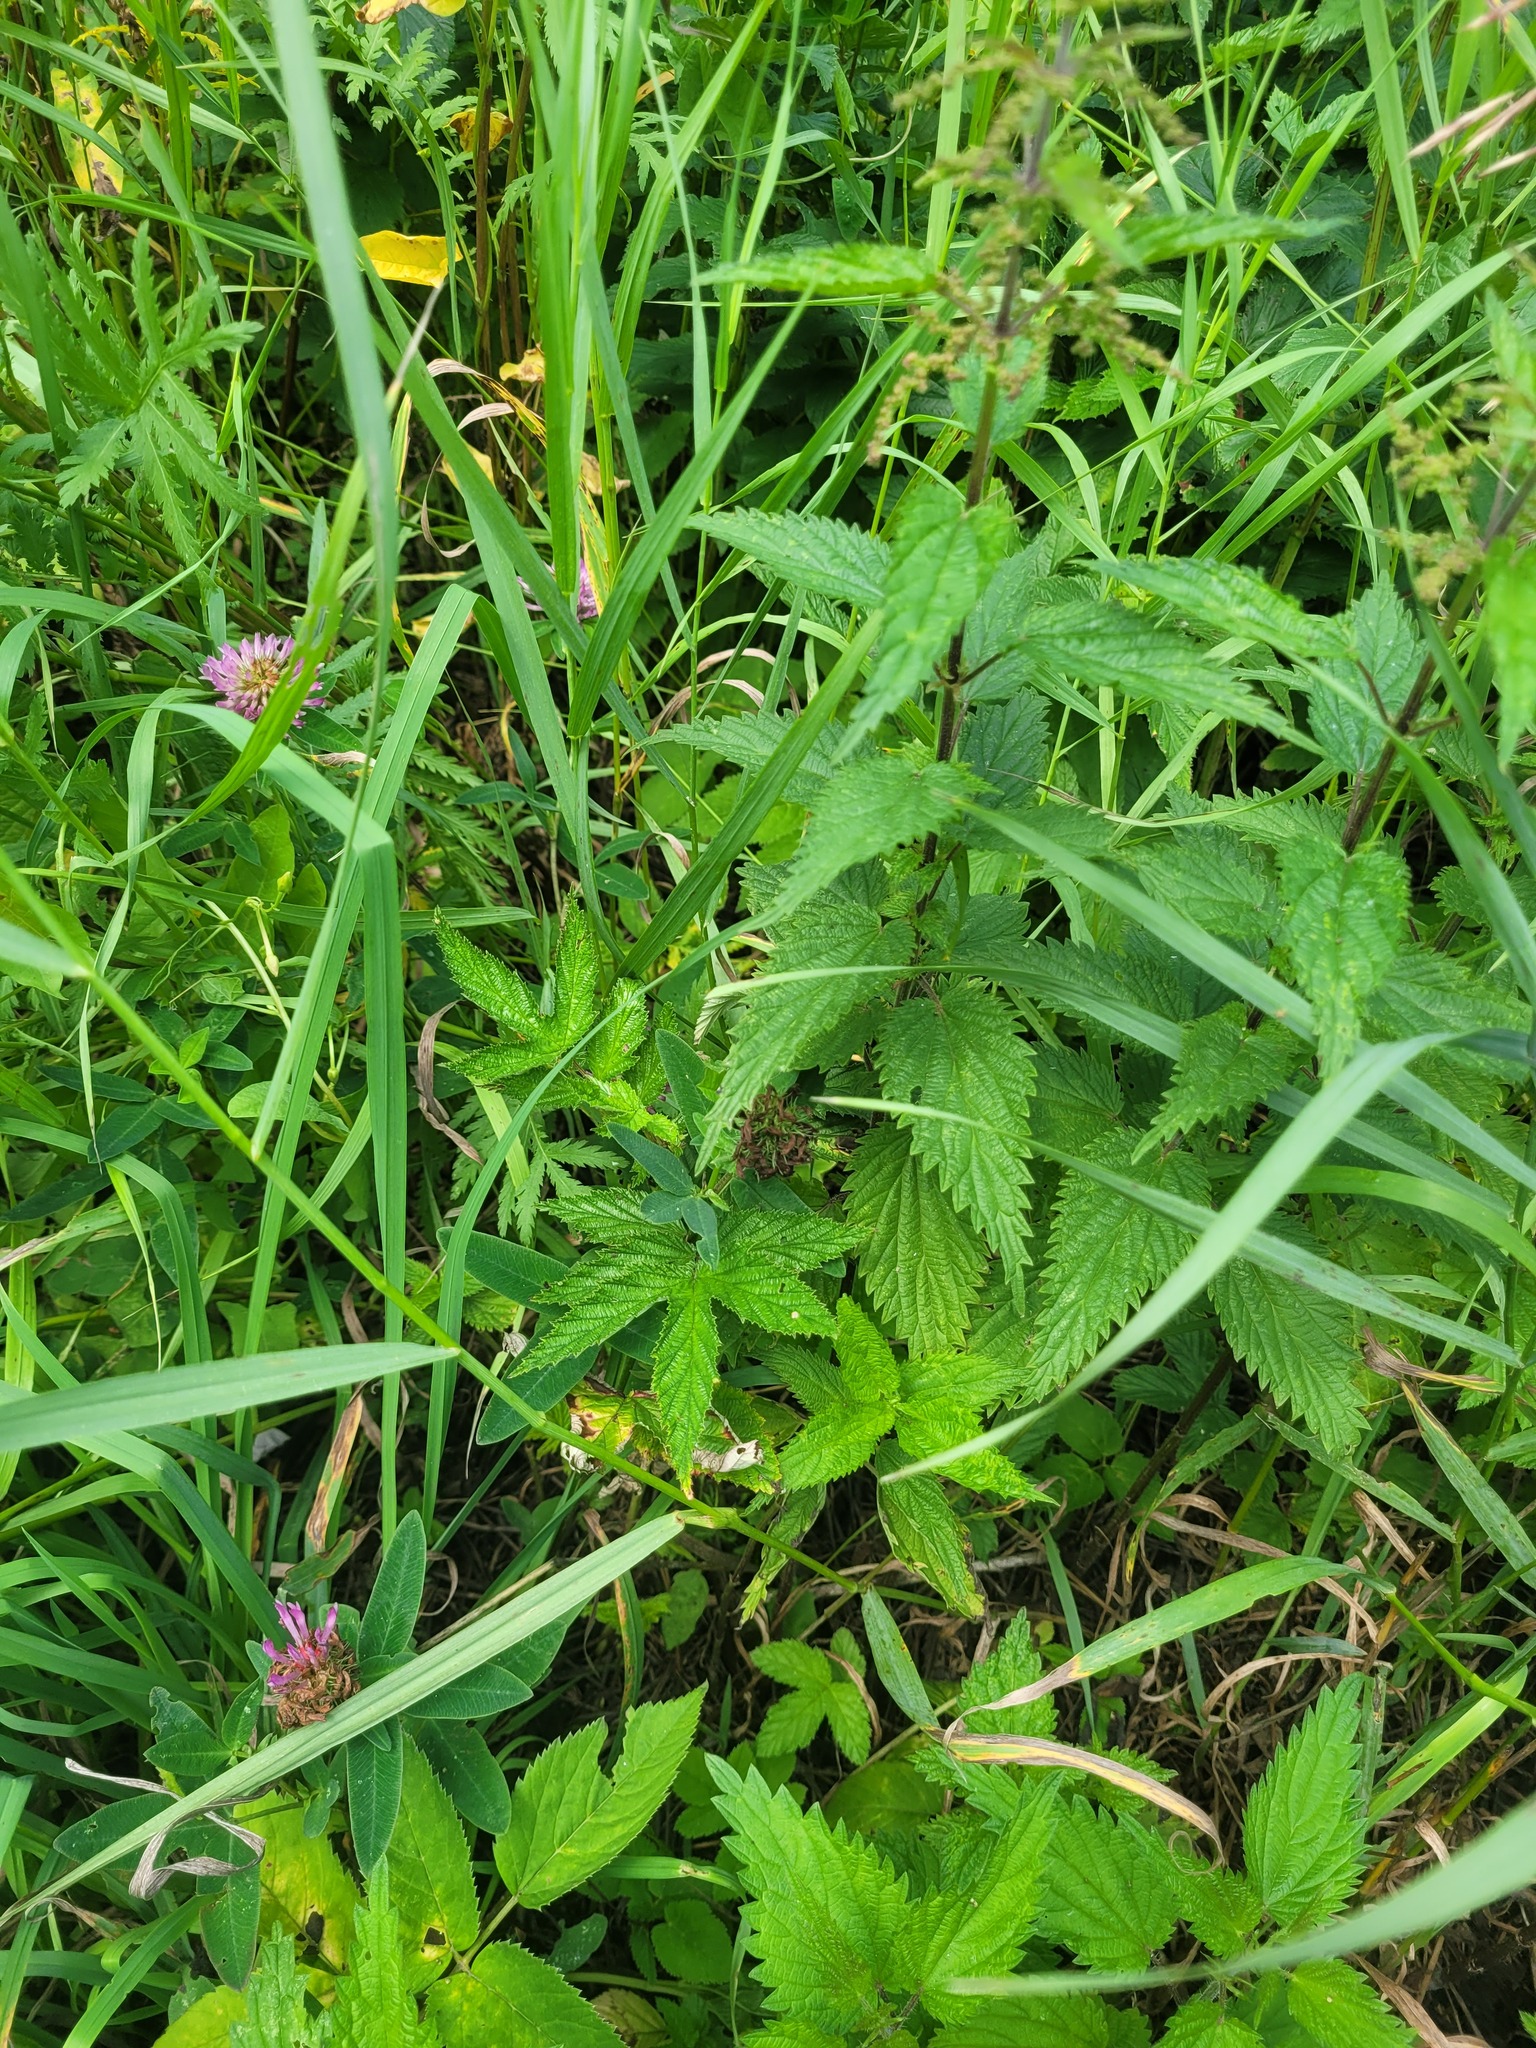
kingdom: Plantae
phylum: Tracheophyta
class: Magnoliopsida
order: Rosales
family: Rosaceae
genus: Filipendula
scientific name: Filipendula ulmaria
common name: Meadowsweet
